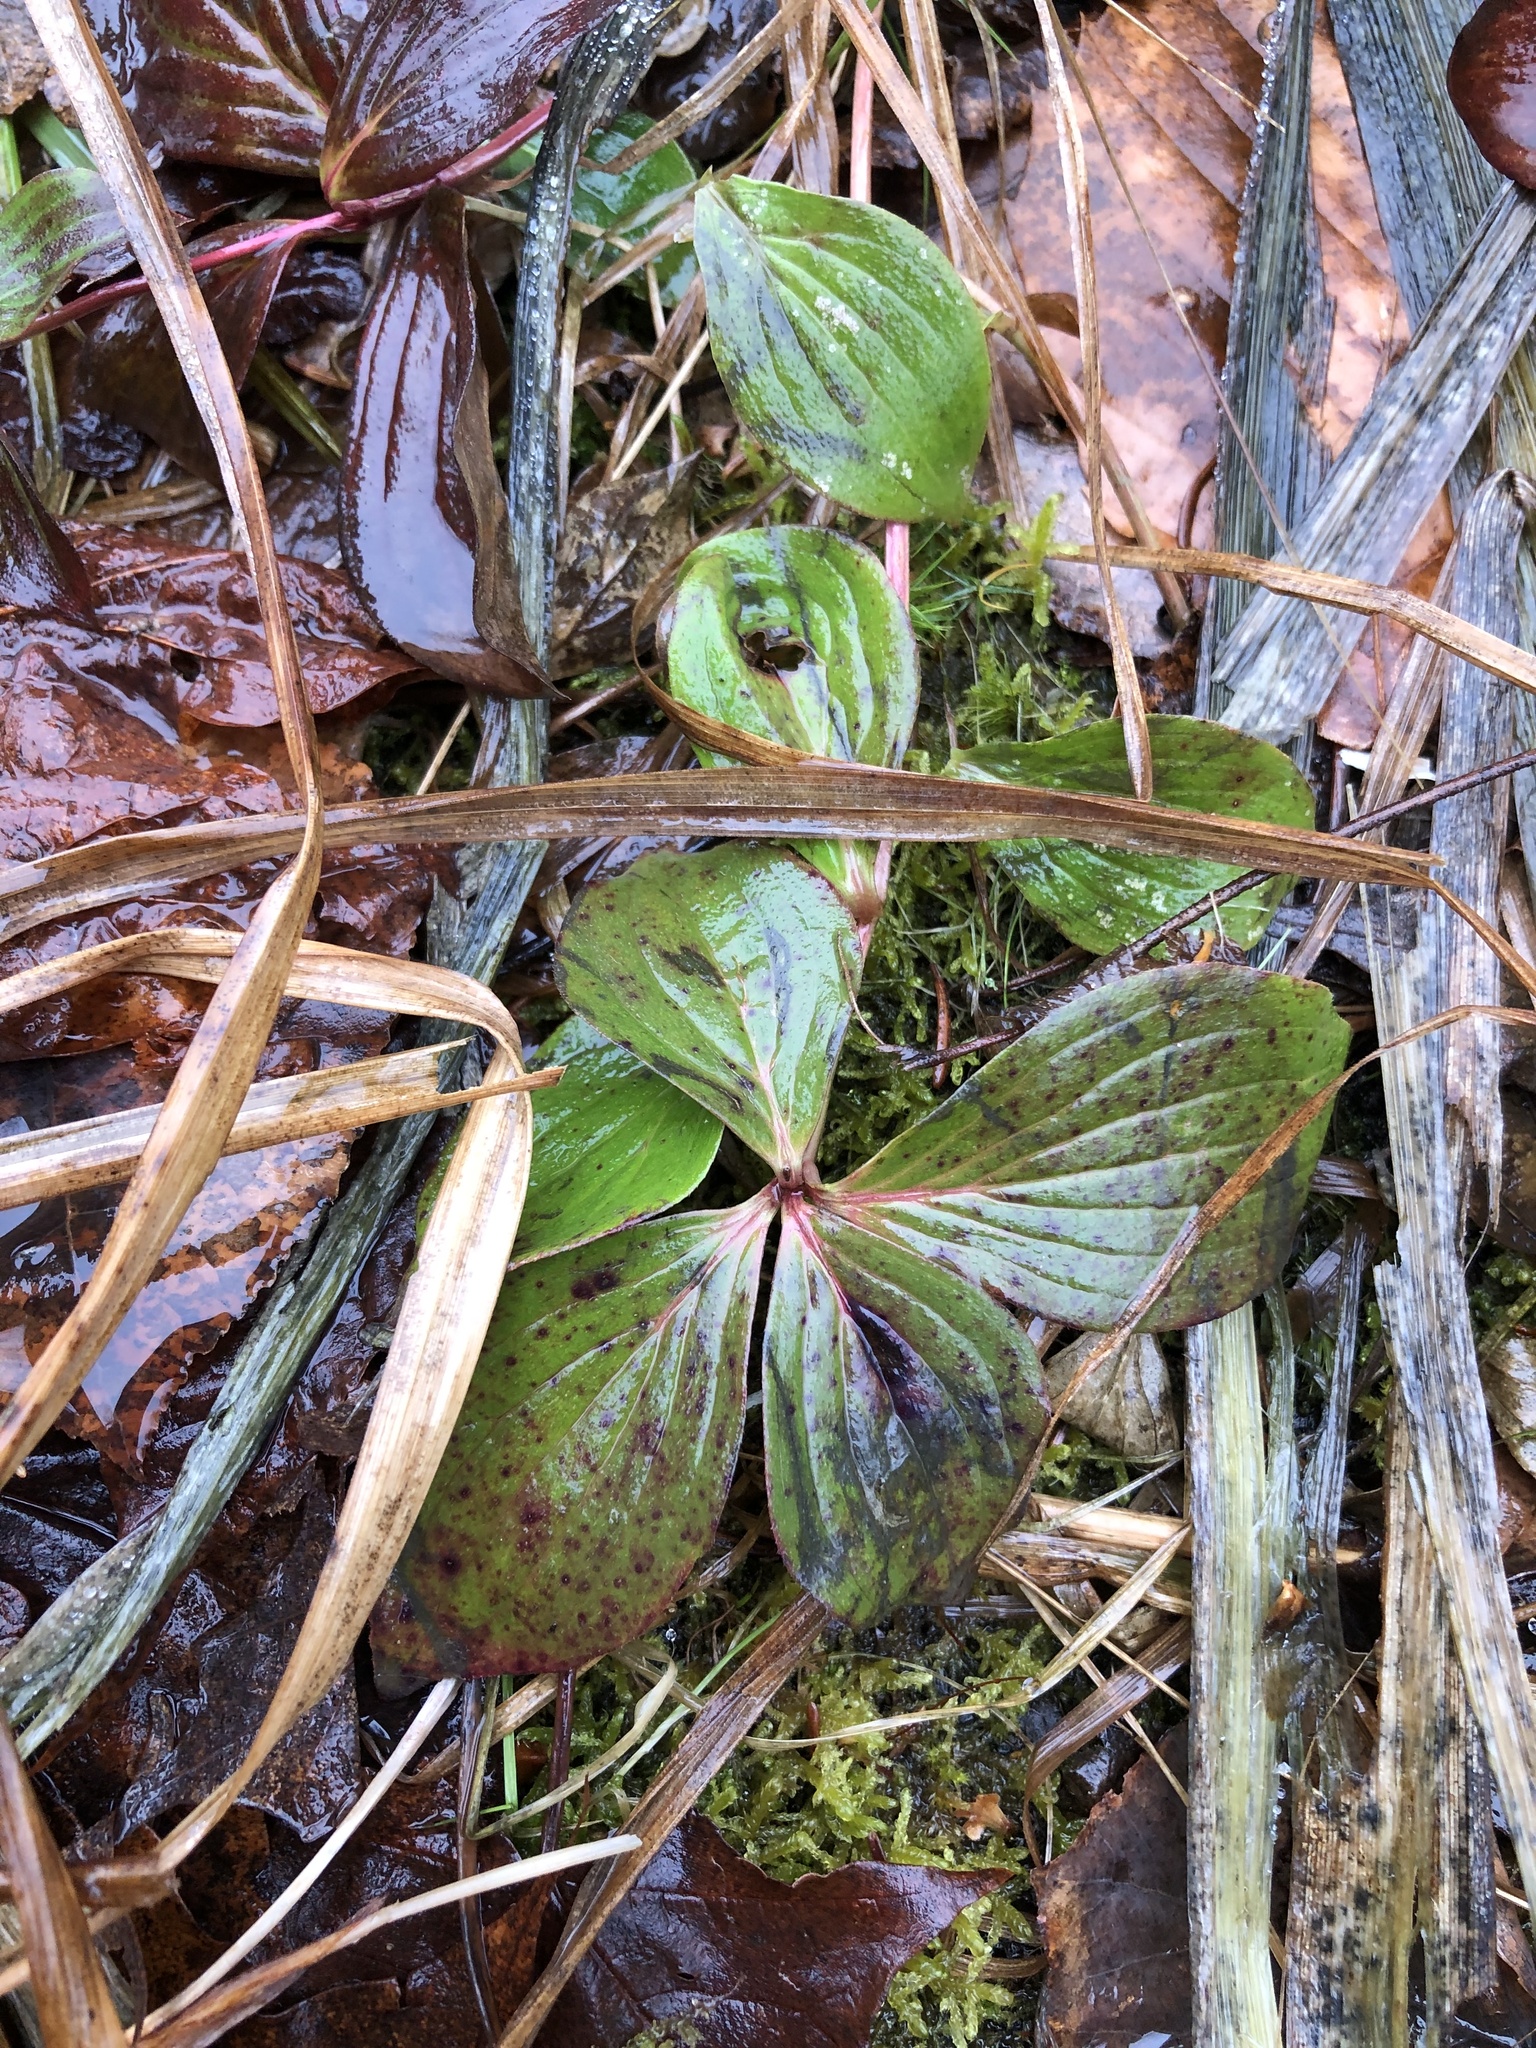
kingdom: Plantae
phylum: Tracheophyta
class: Magnoliopsida
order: Cornales
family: Cornaceae
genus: Cornus
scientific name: Cornus canadensis
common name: Creeping dogwood
